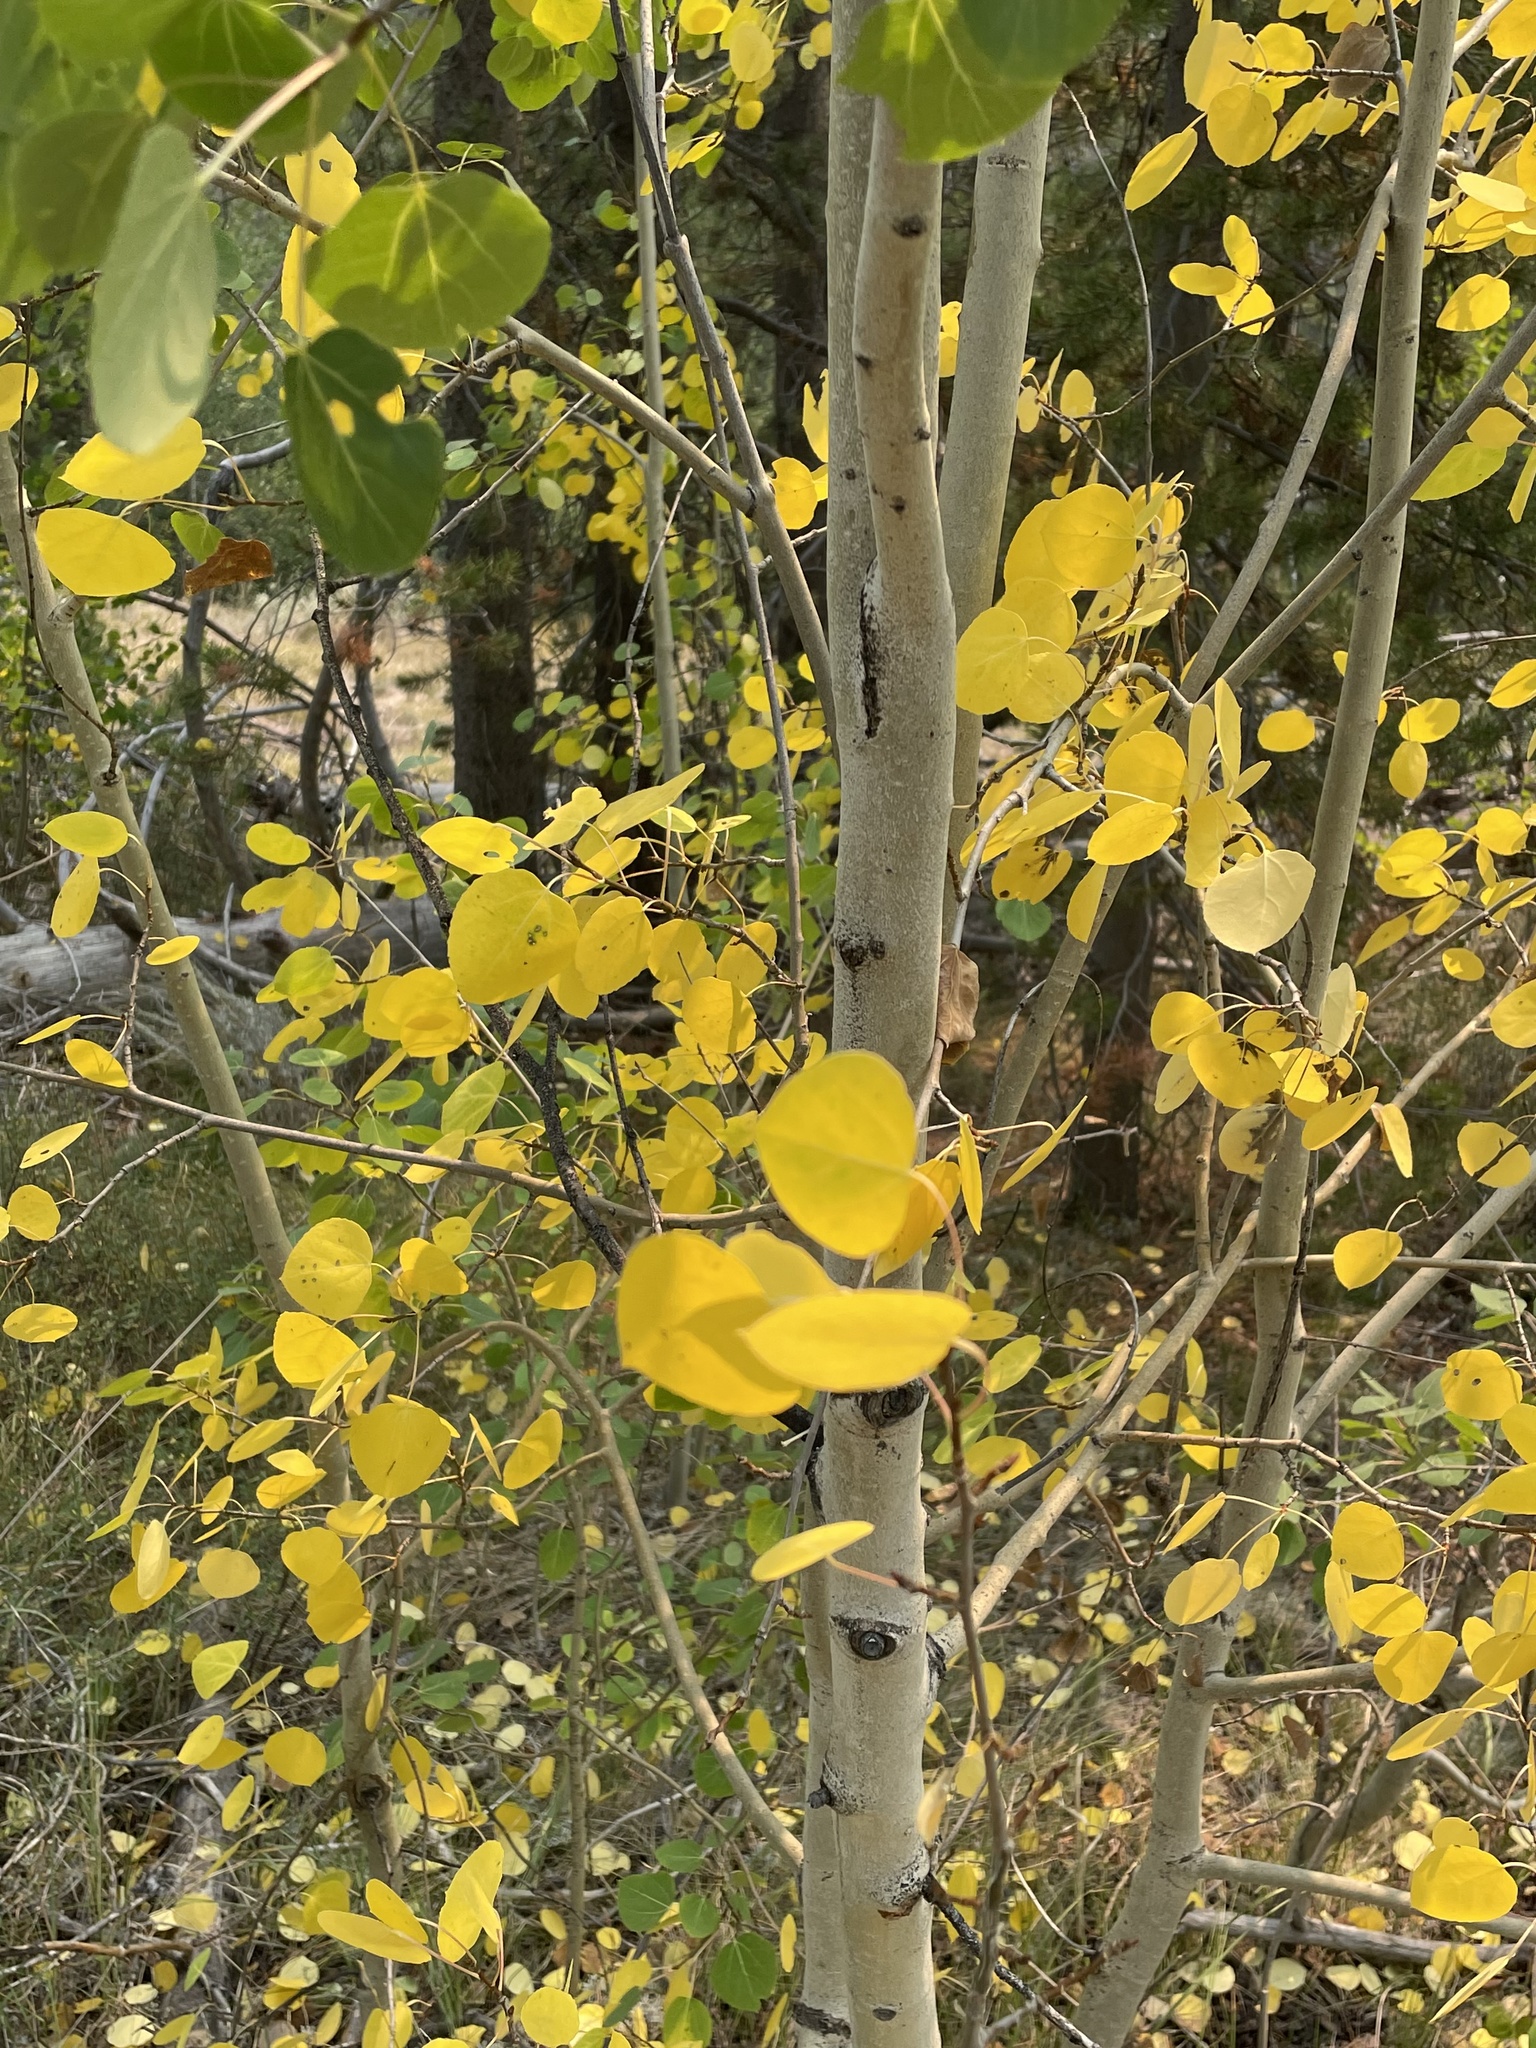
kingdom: Plantae
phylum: Tracheophyta
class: Magnoliopsida
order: Malpighiales
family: Salicaceae
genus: Populus
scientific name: Populus tremuloides
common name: Quaking aspen
